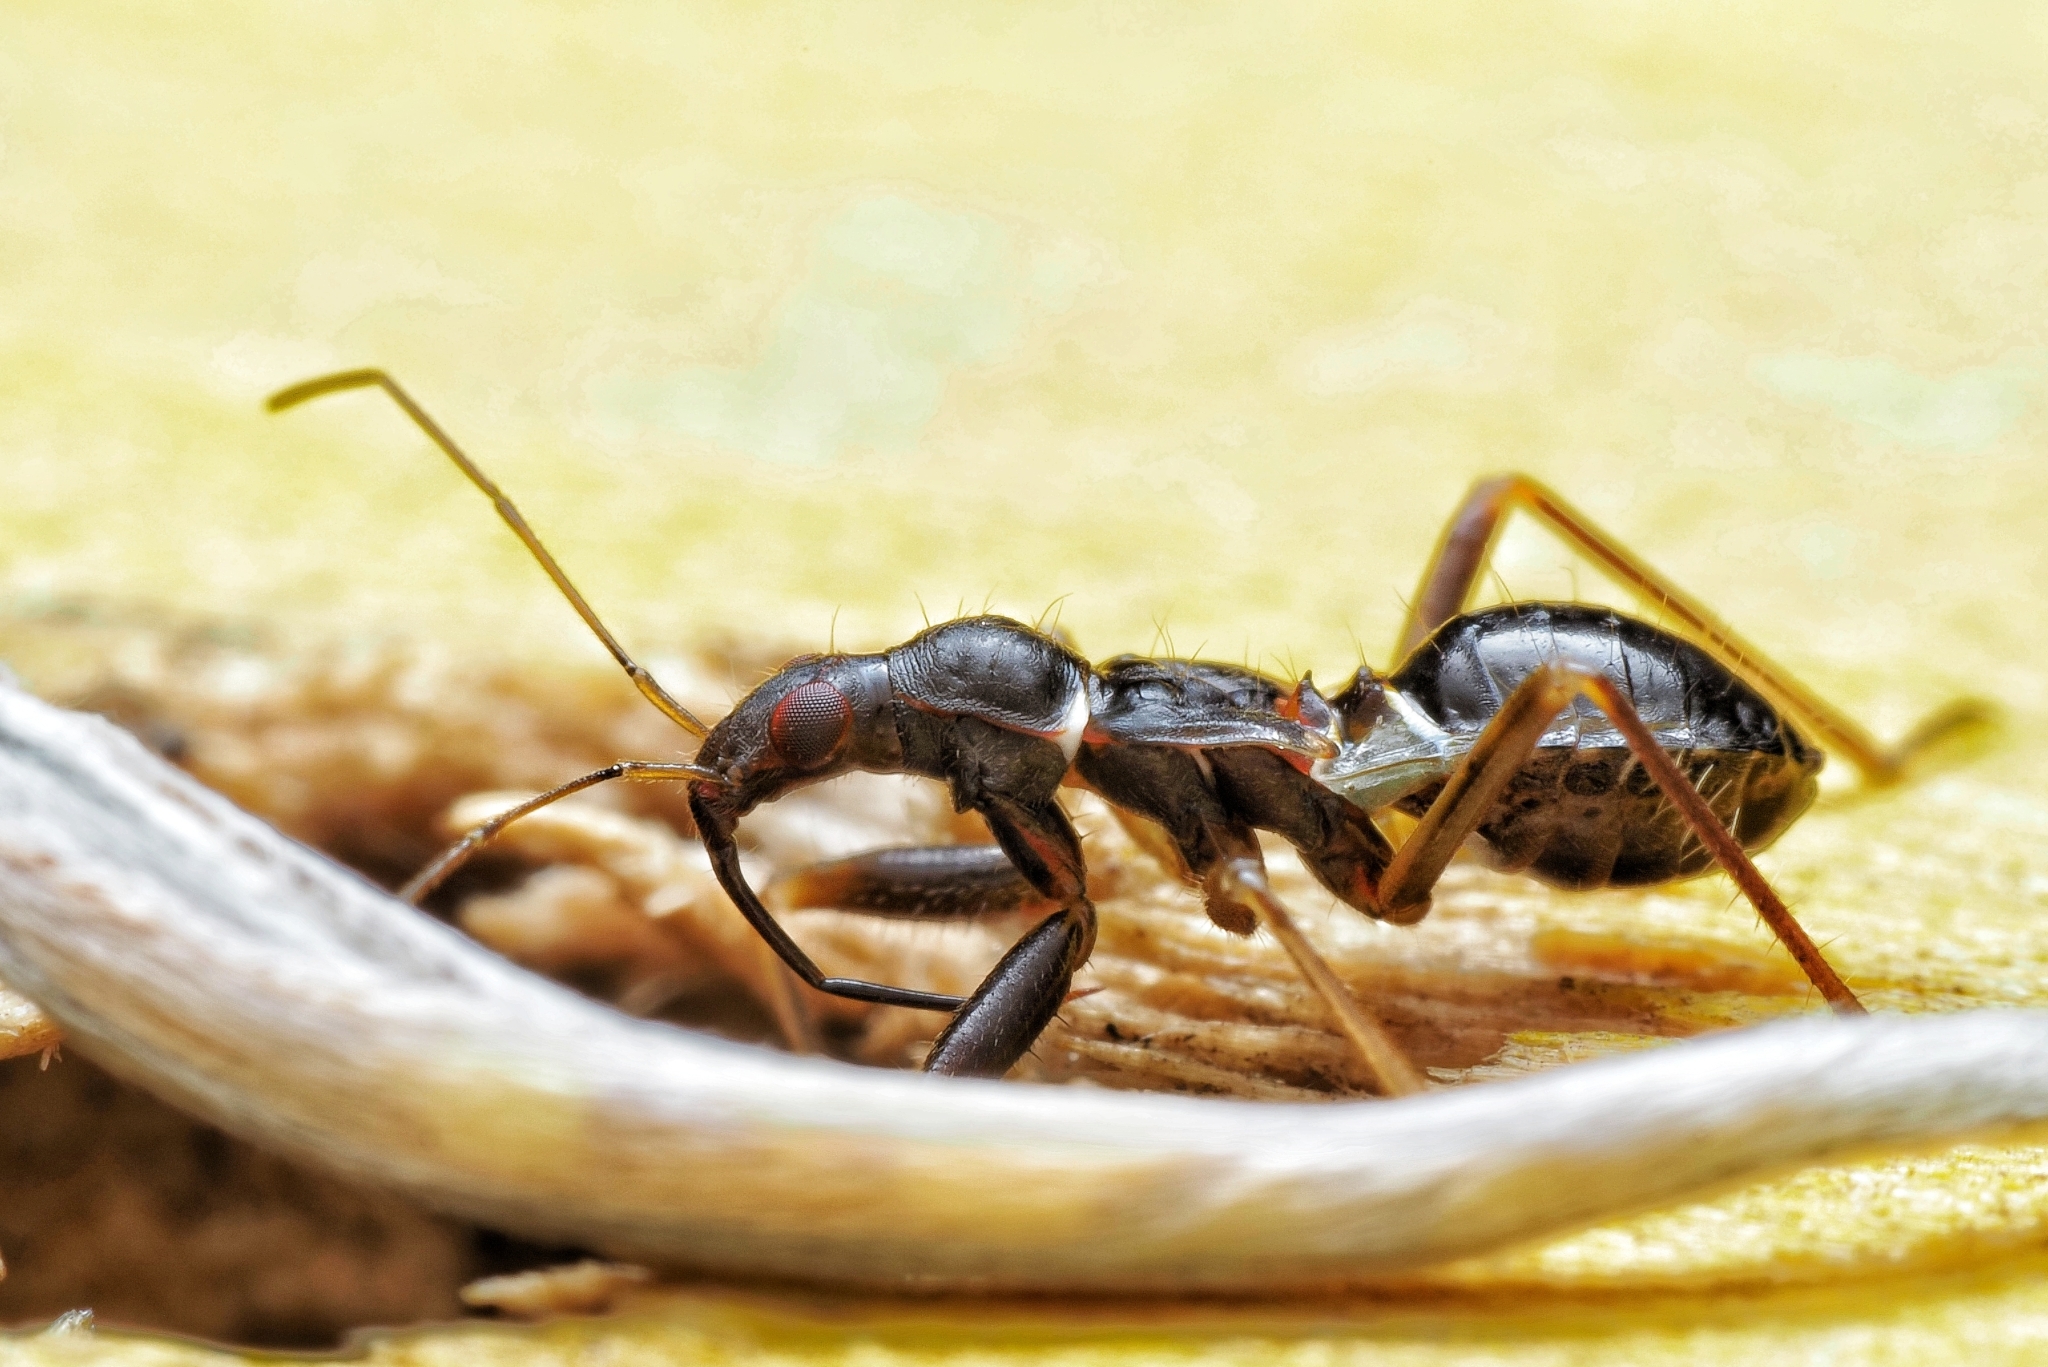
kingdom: Animalia
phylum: Arthropoda
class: Insecta
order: Hemiptera
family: Nabidae
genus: Himacerus
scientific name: Himacerus mirmicoides
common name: Ant damsel bug
